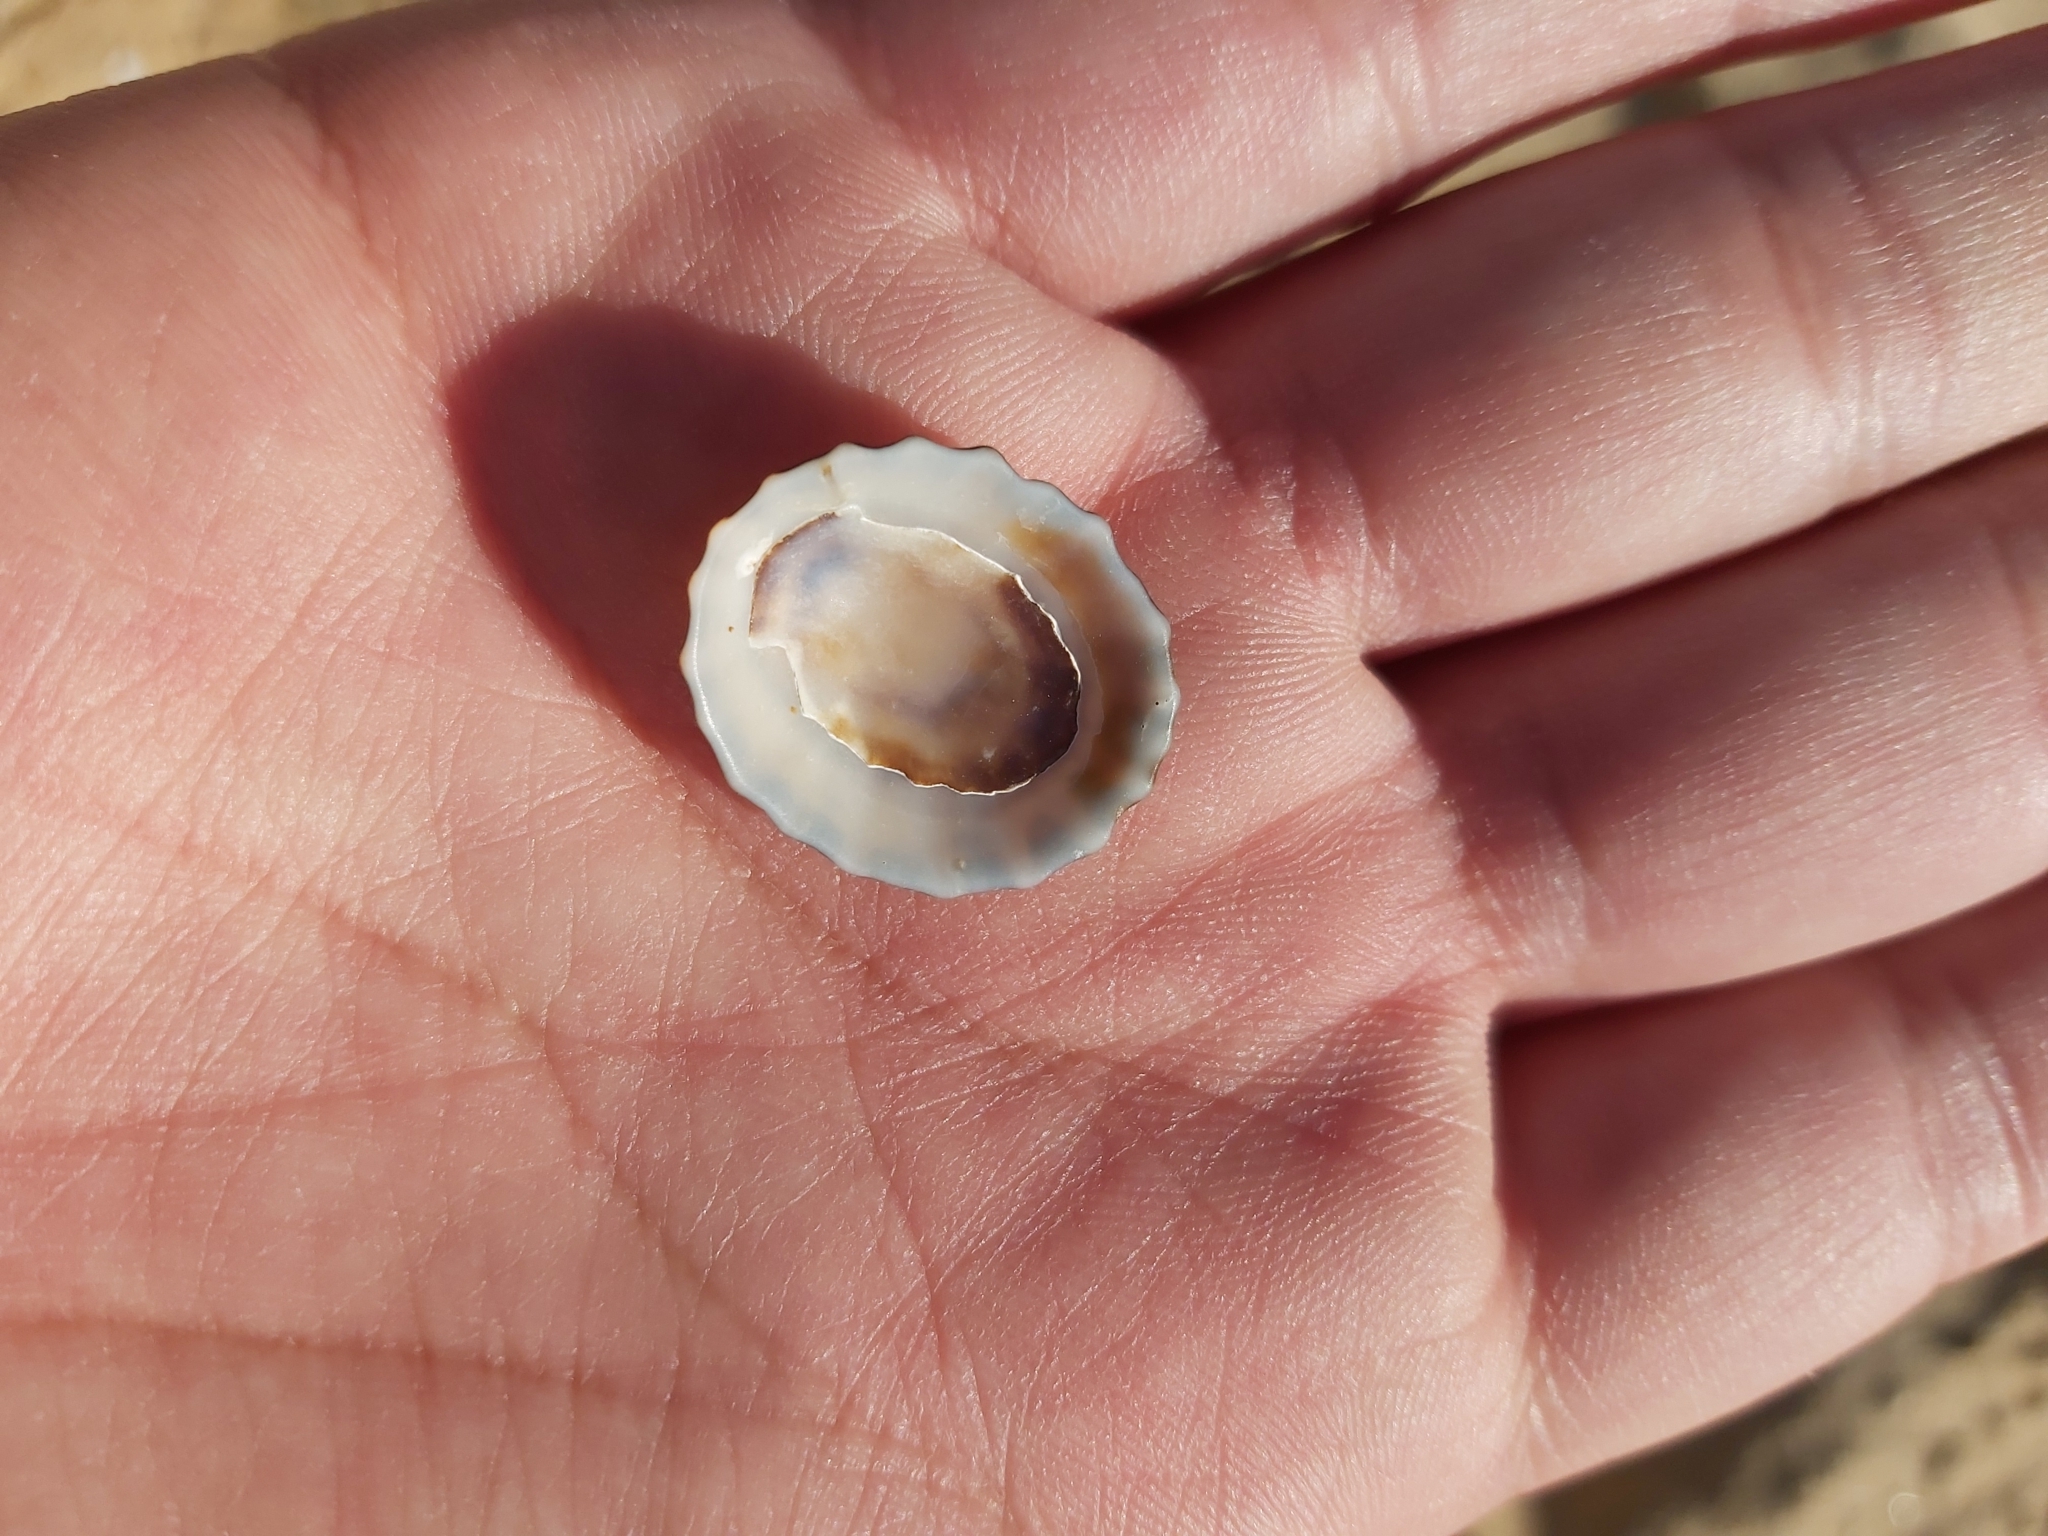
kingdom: Animalia
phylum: Mollusca
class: Gastropoda
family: Lottiidae
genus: Patelloida
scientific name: Patelloida alticostata
